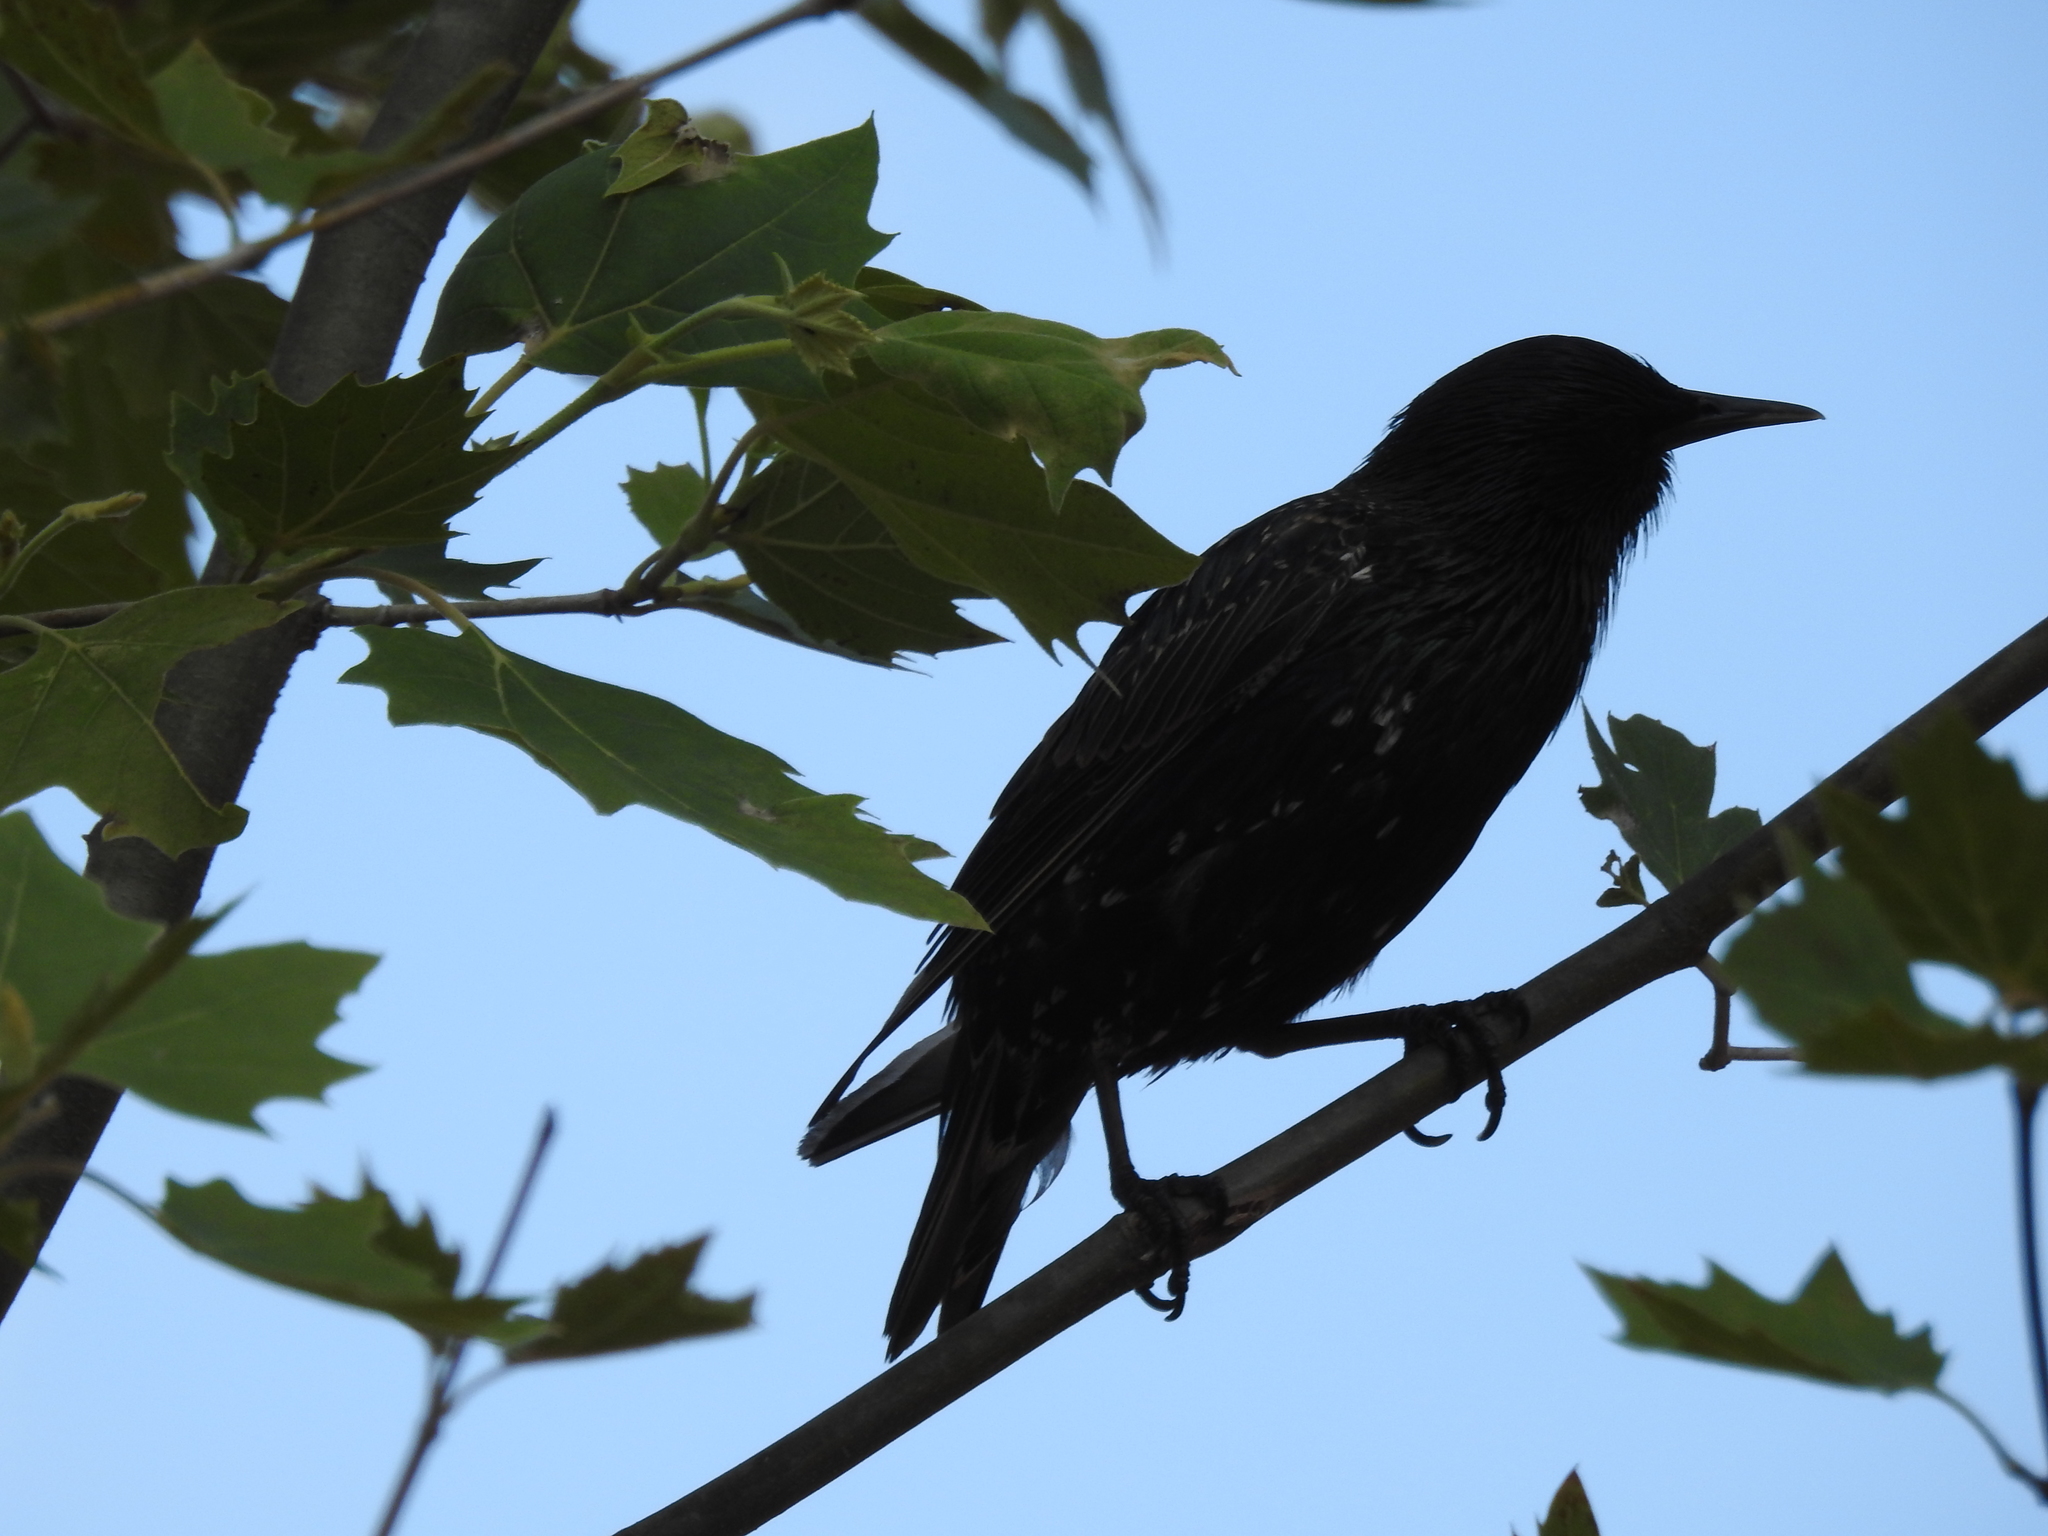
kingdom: Animalia
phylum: Chordata
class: Aves
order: Passeriformes
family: Sturnidae
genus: Sturnus
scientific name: Sturnus vulgaris
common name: Common starling
